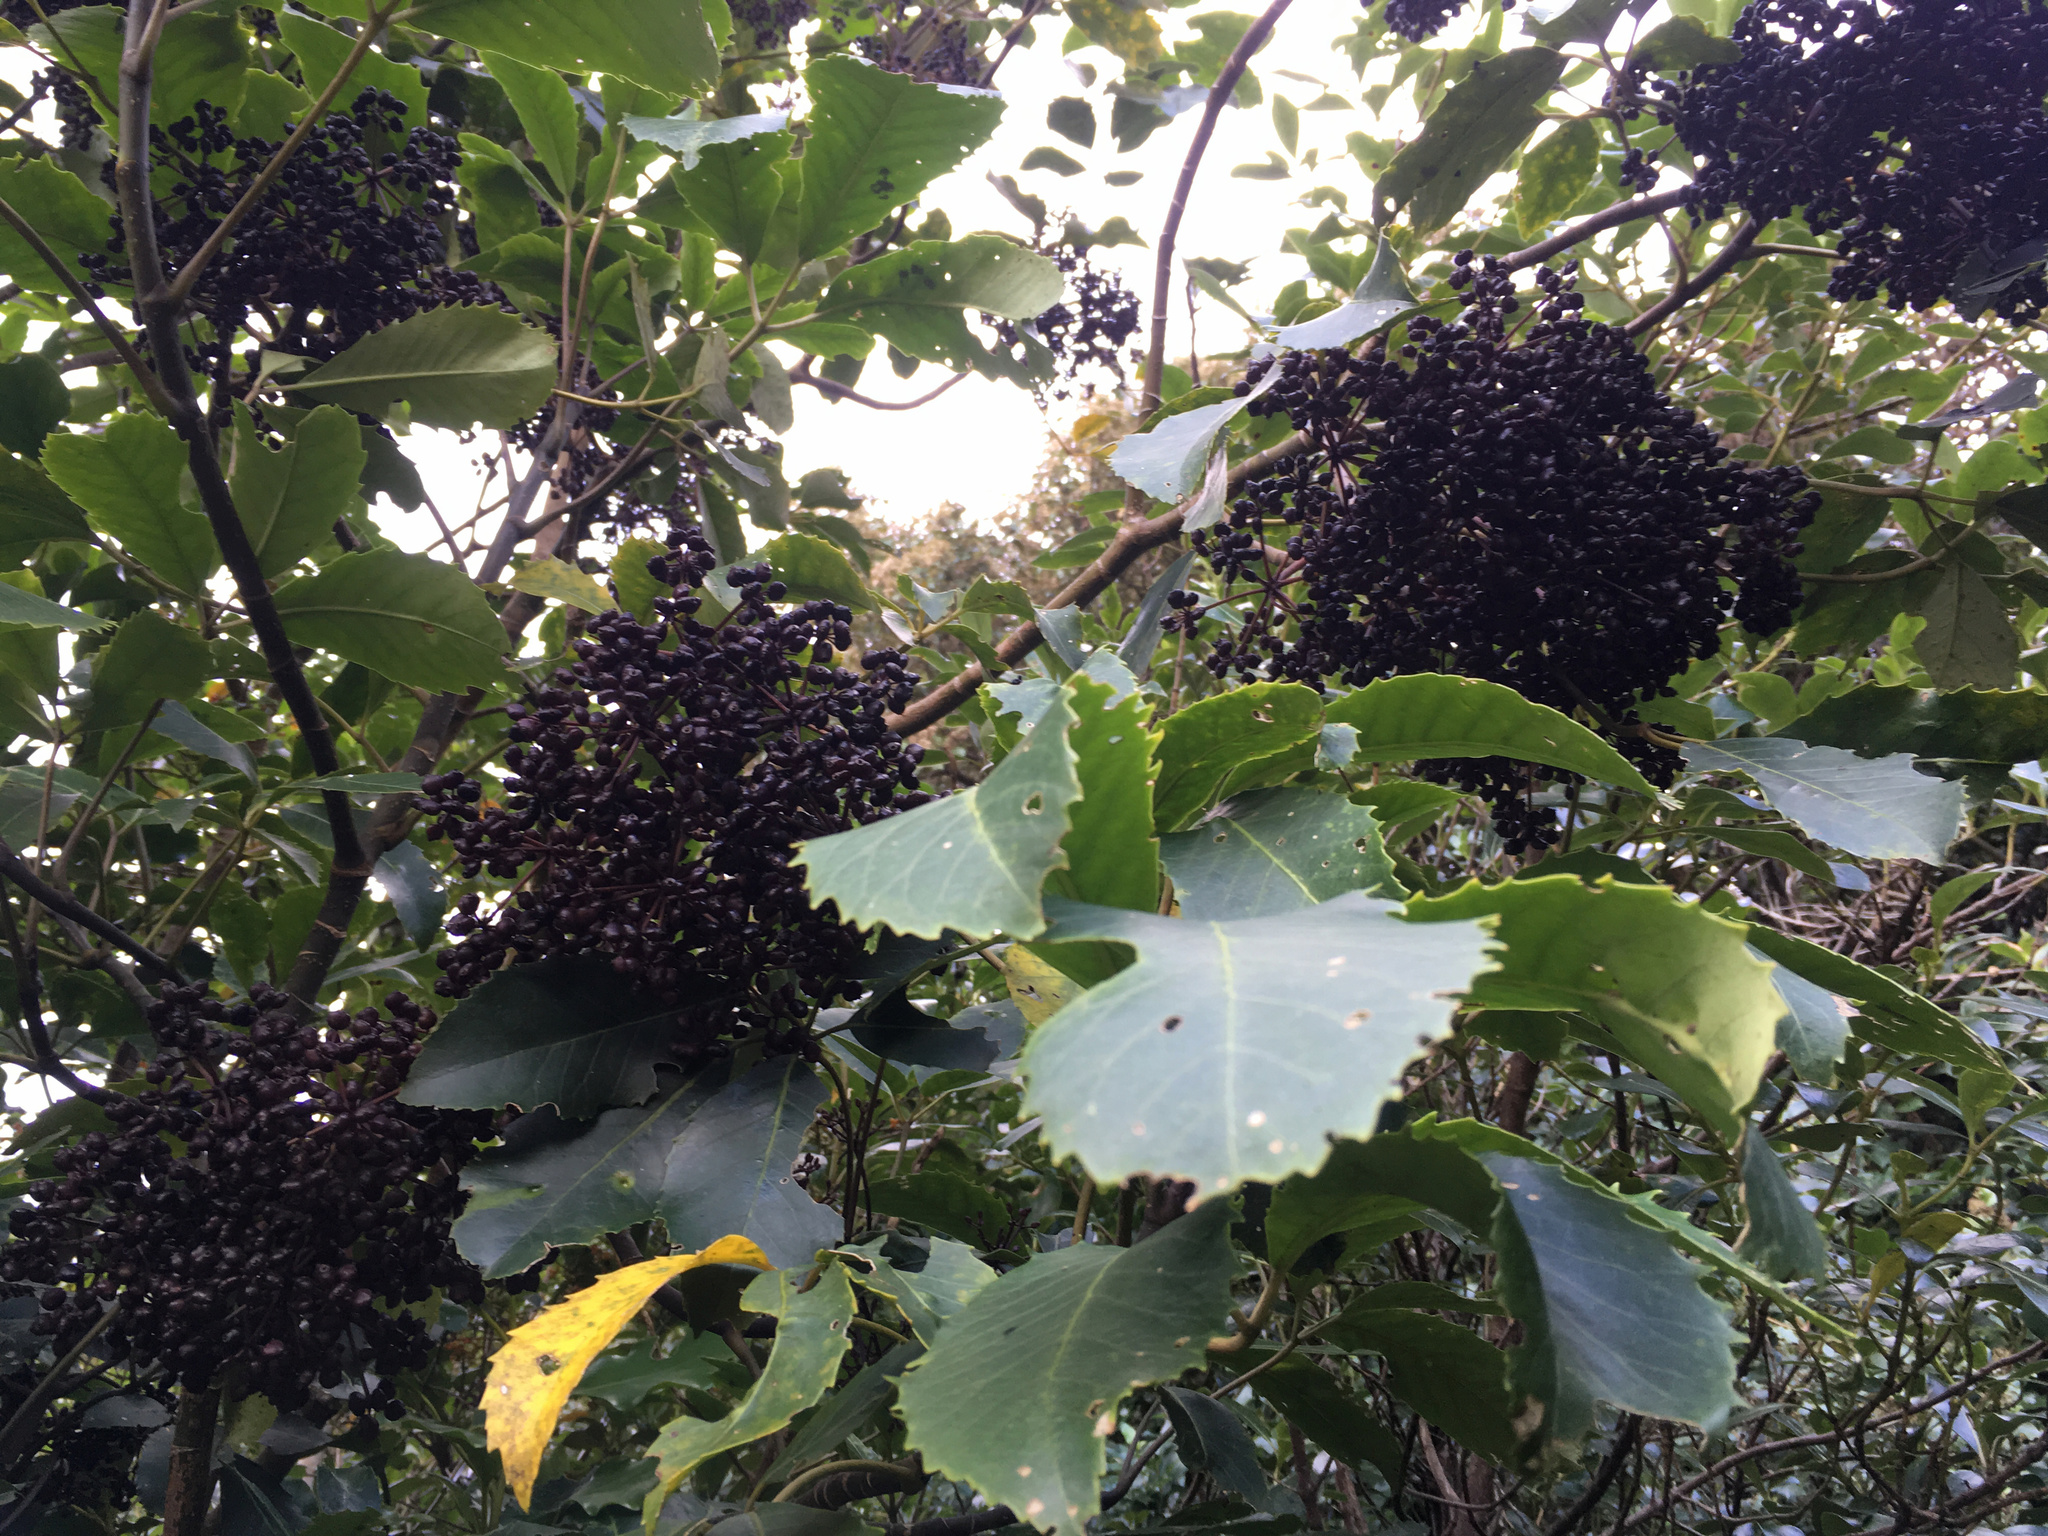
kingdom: Plantae
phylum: Tracheophyta
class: Magnoliopsida
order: Apiales
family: Araliaceae
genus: Neopanax
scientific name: Neopanax arboreus
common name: Five-fingers
